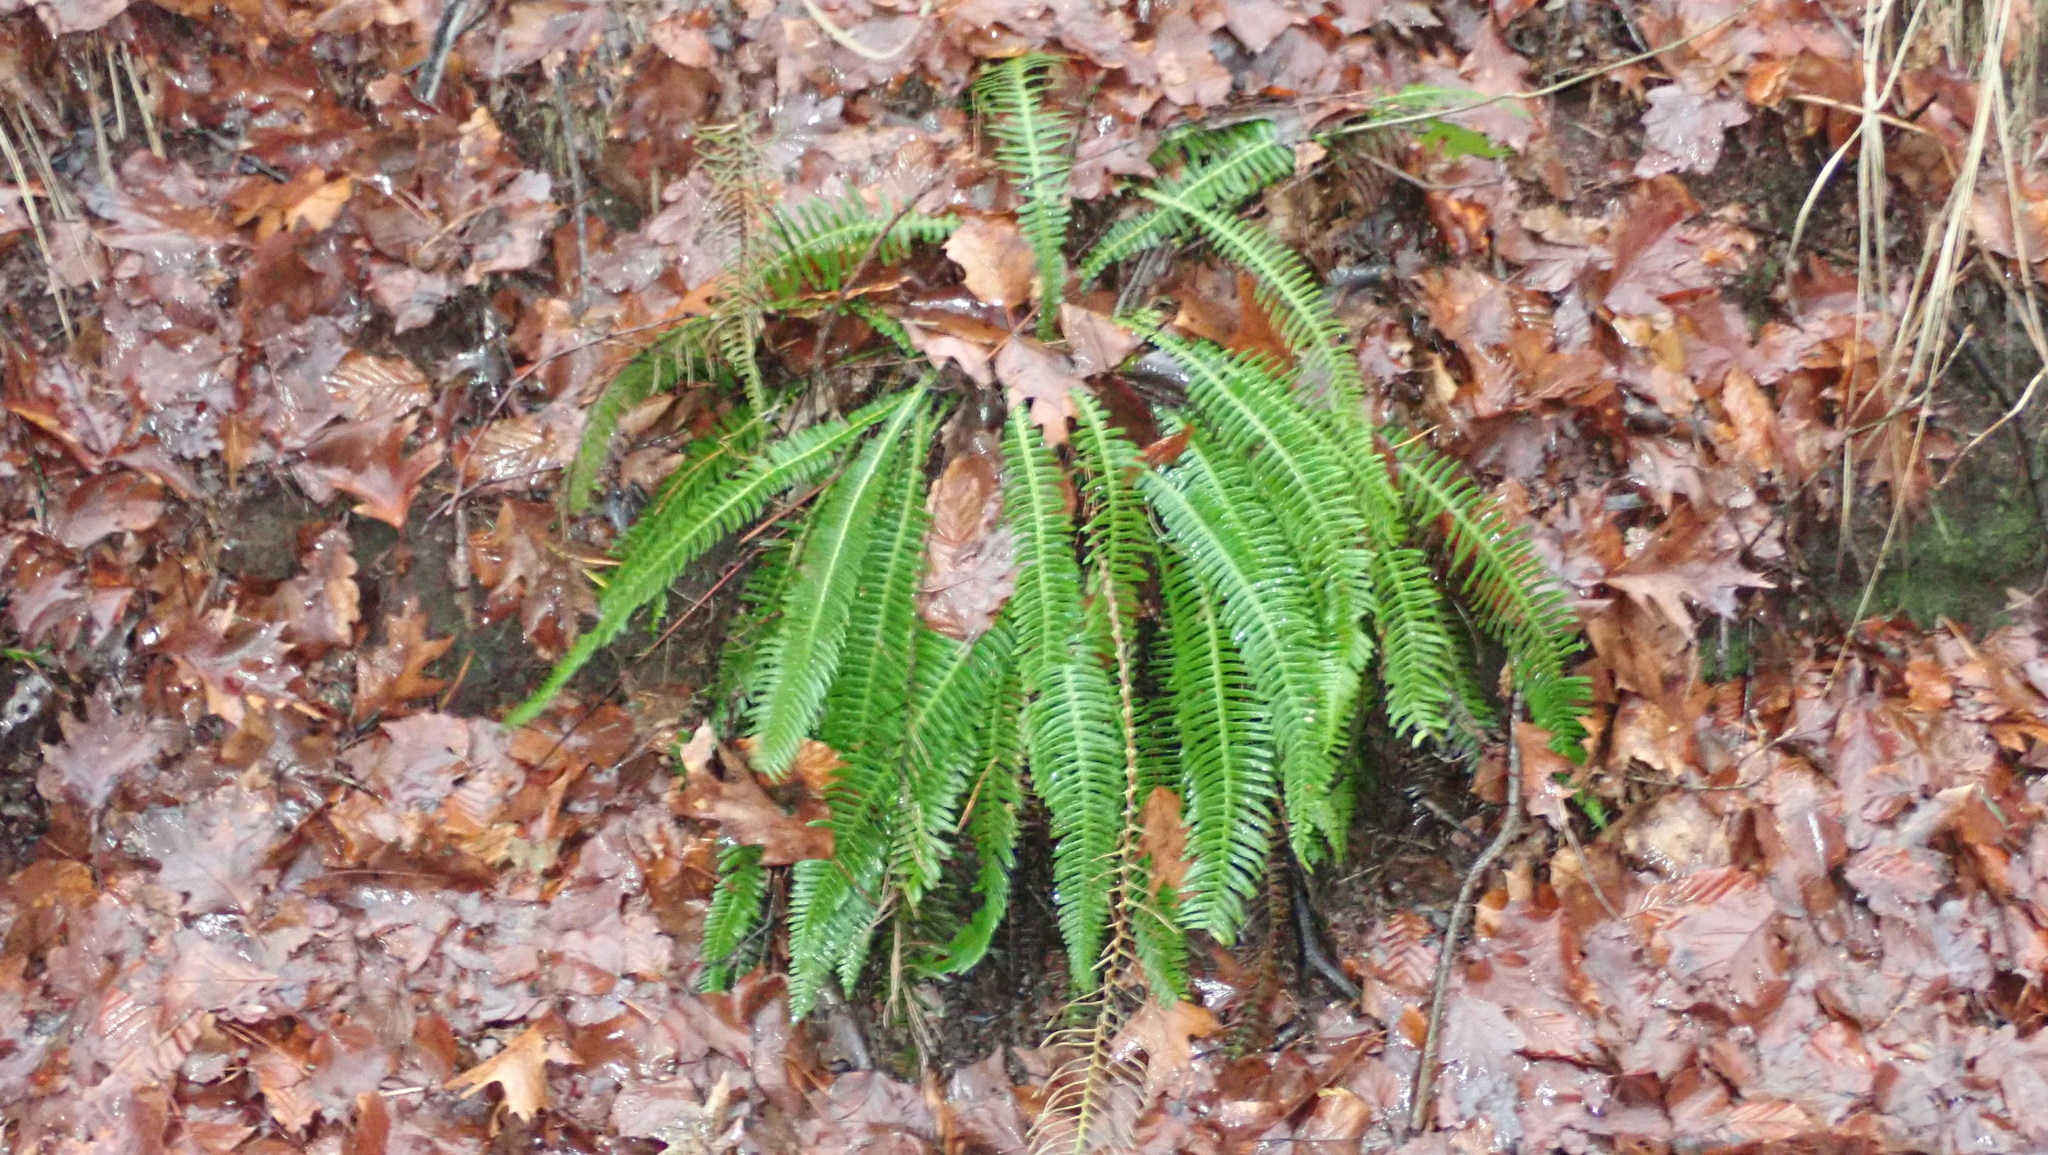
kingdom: Plantae
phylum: Tracheophyta
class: Polypodiopsida
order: Polypodiales
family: Blechnaceae
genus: Struthiopteris
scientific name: Struthiopteris spicant
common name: Deer fern
